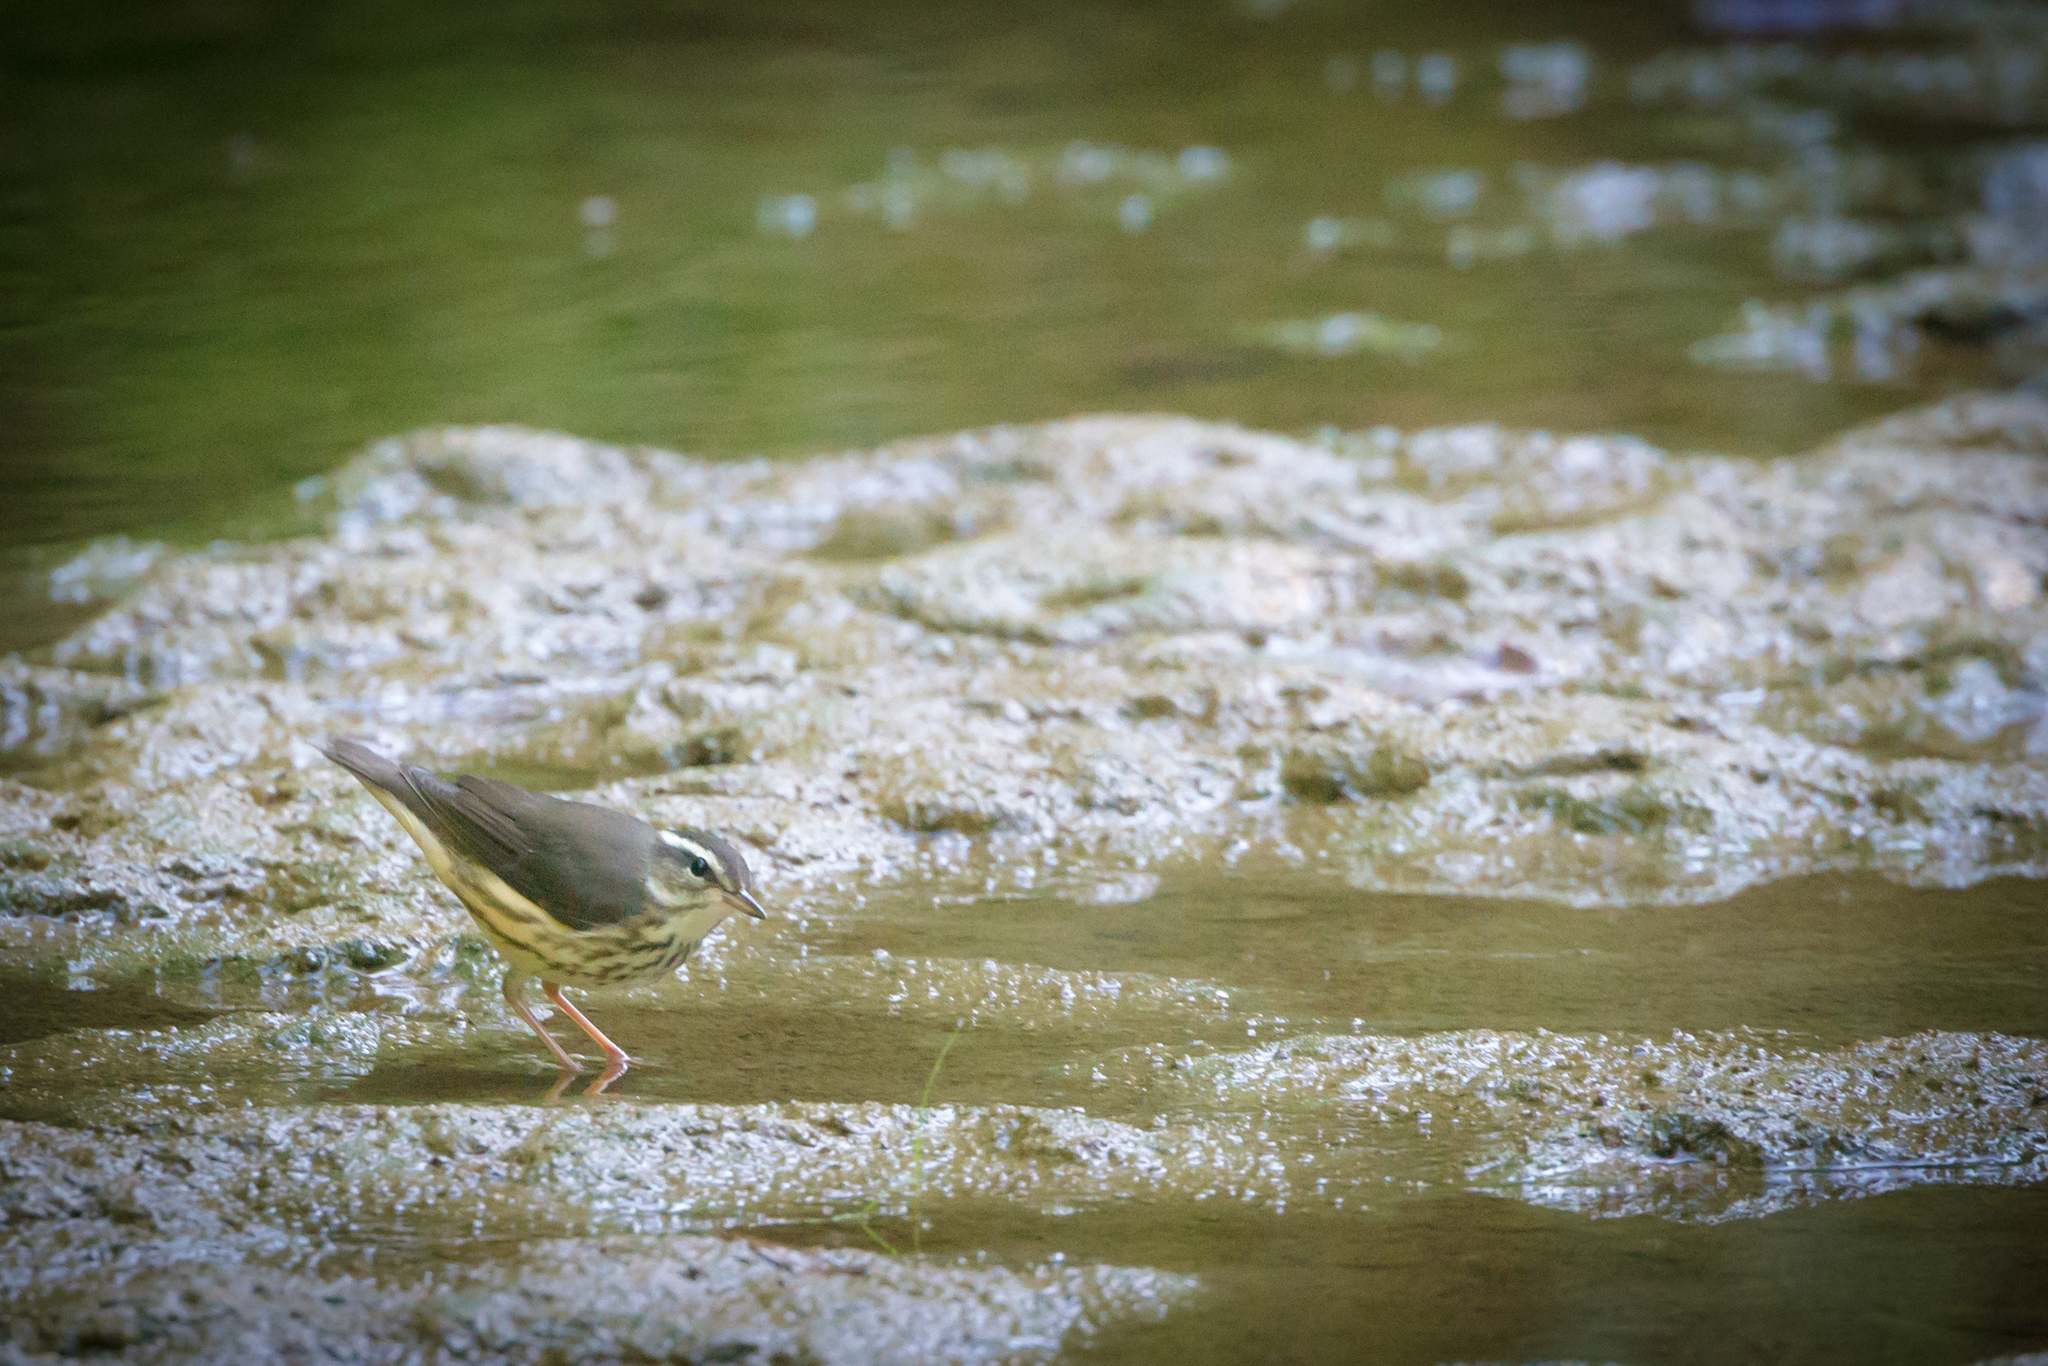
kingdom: Animalia
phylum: Chordata
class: Aves
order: Passeriformes
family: Parulidae
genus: Parkesia
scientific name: Parkesia motacilla
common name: Louisiana waterthrush
